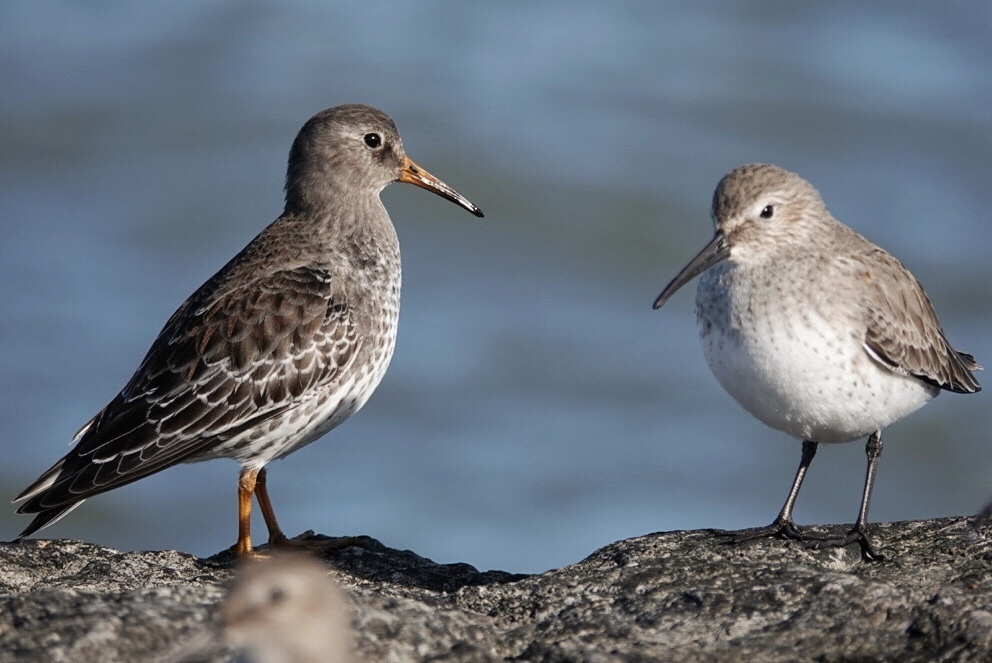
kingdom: Animalia
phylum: Chordata
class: Aves
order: Charadriiformes
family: Scolopacidae
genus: Calidris
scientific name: Calidris maritima
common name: Purple sandpiper
